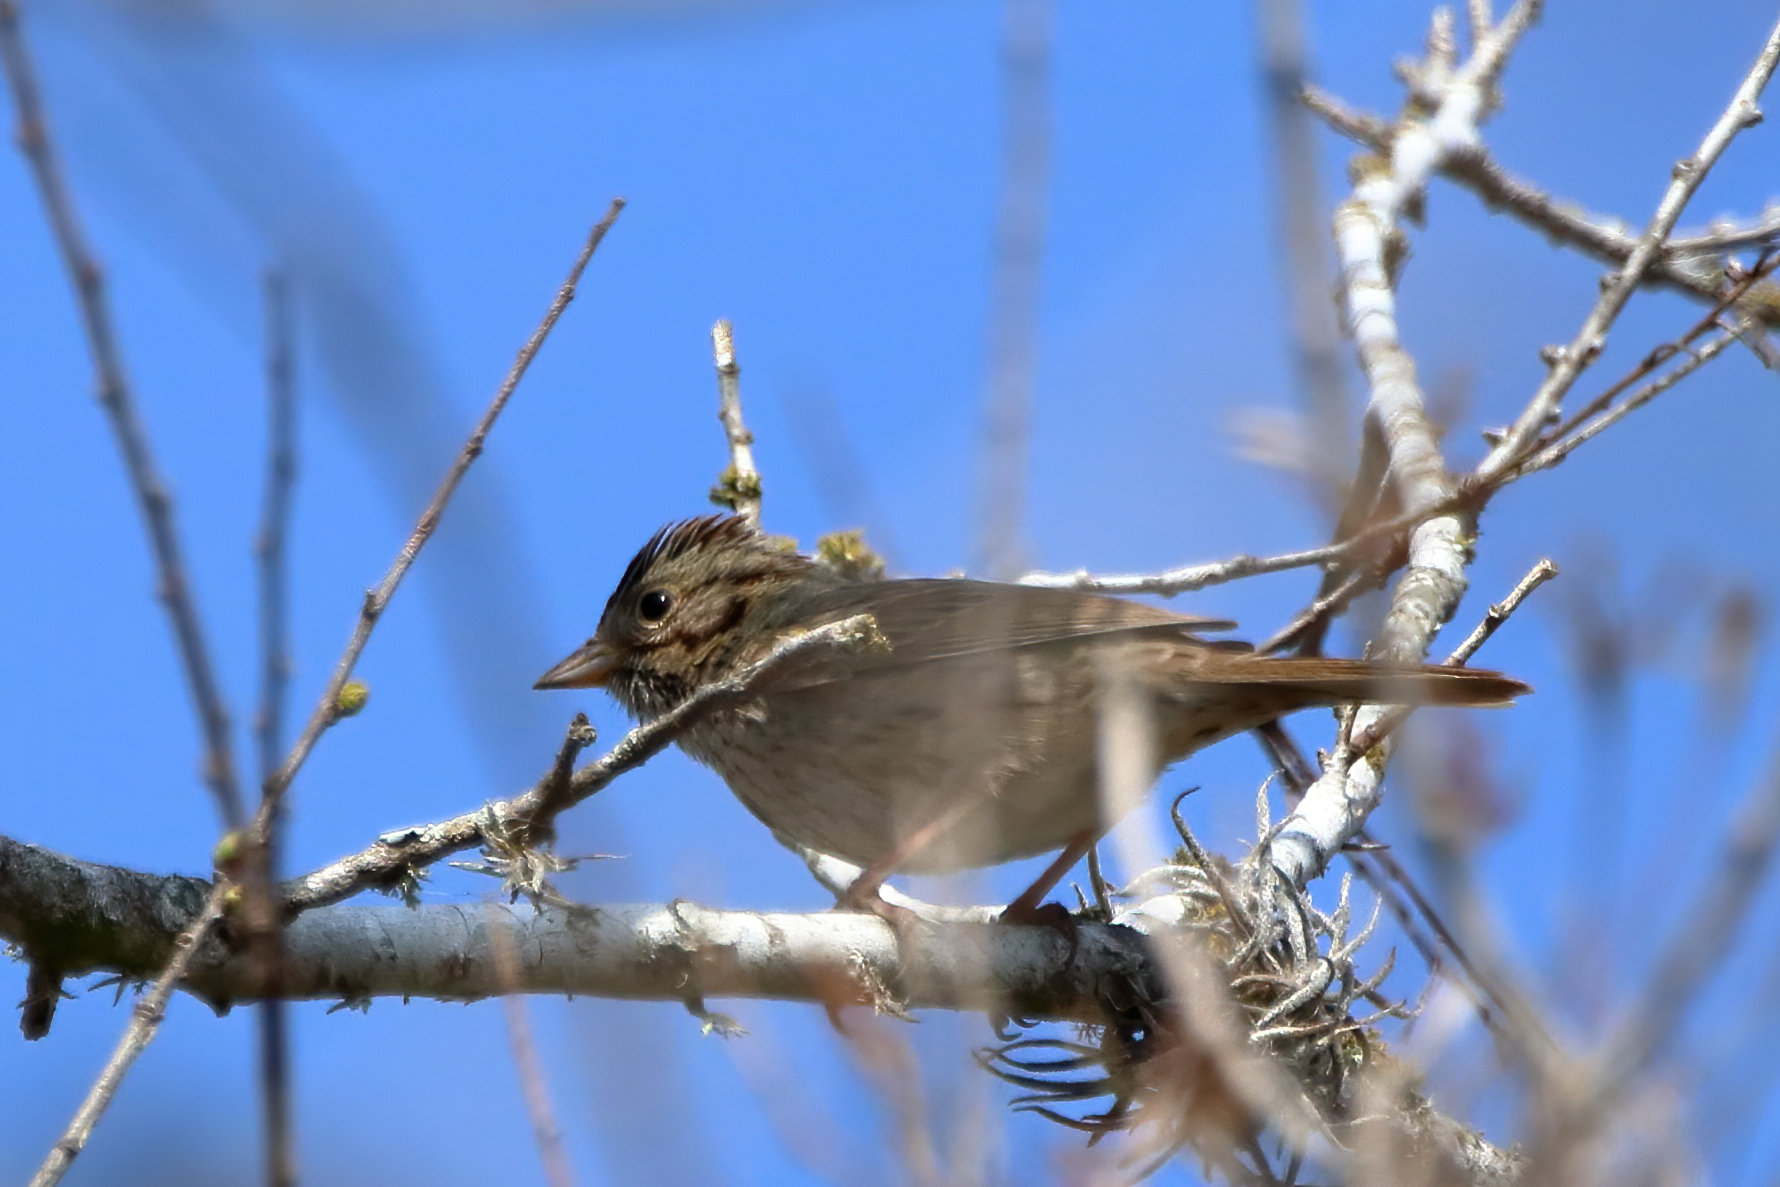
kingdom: Animalia
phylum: Chordata
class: Aves
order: Passeriformes
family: Passerellidae
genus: Melospiza
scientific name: Melospiza lincolnii
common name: Lincoln's sparrow
